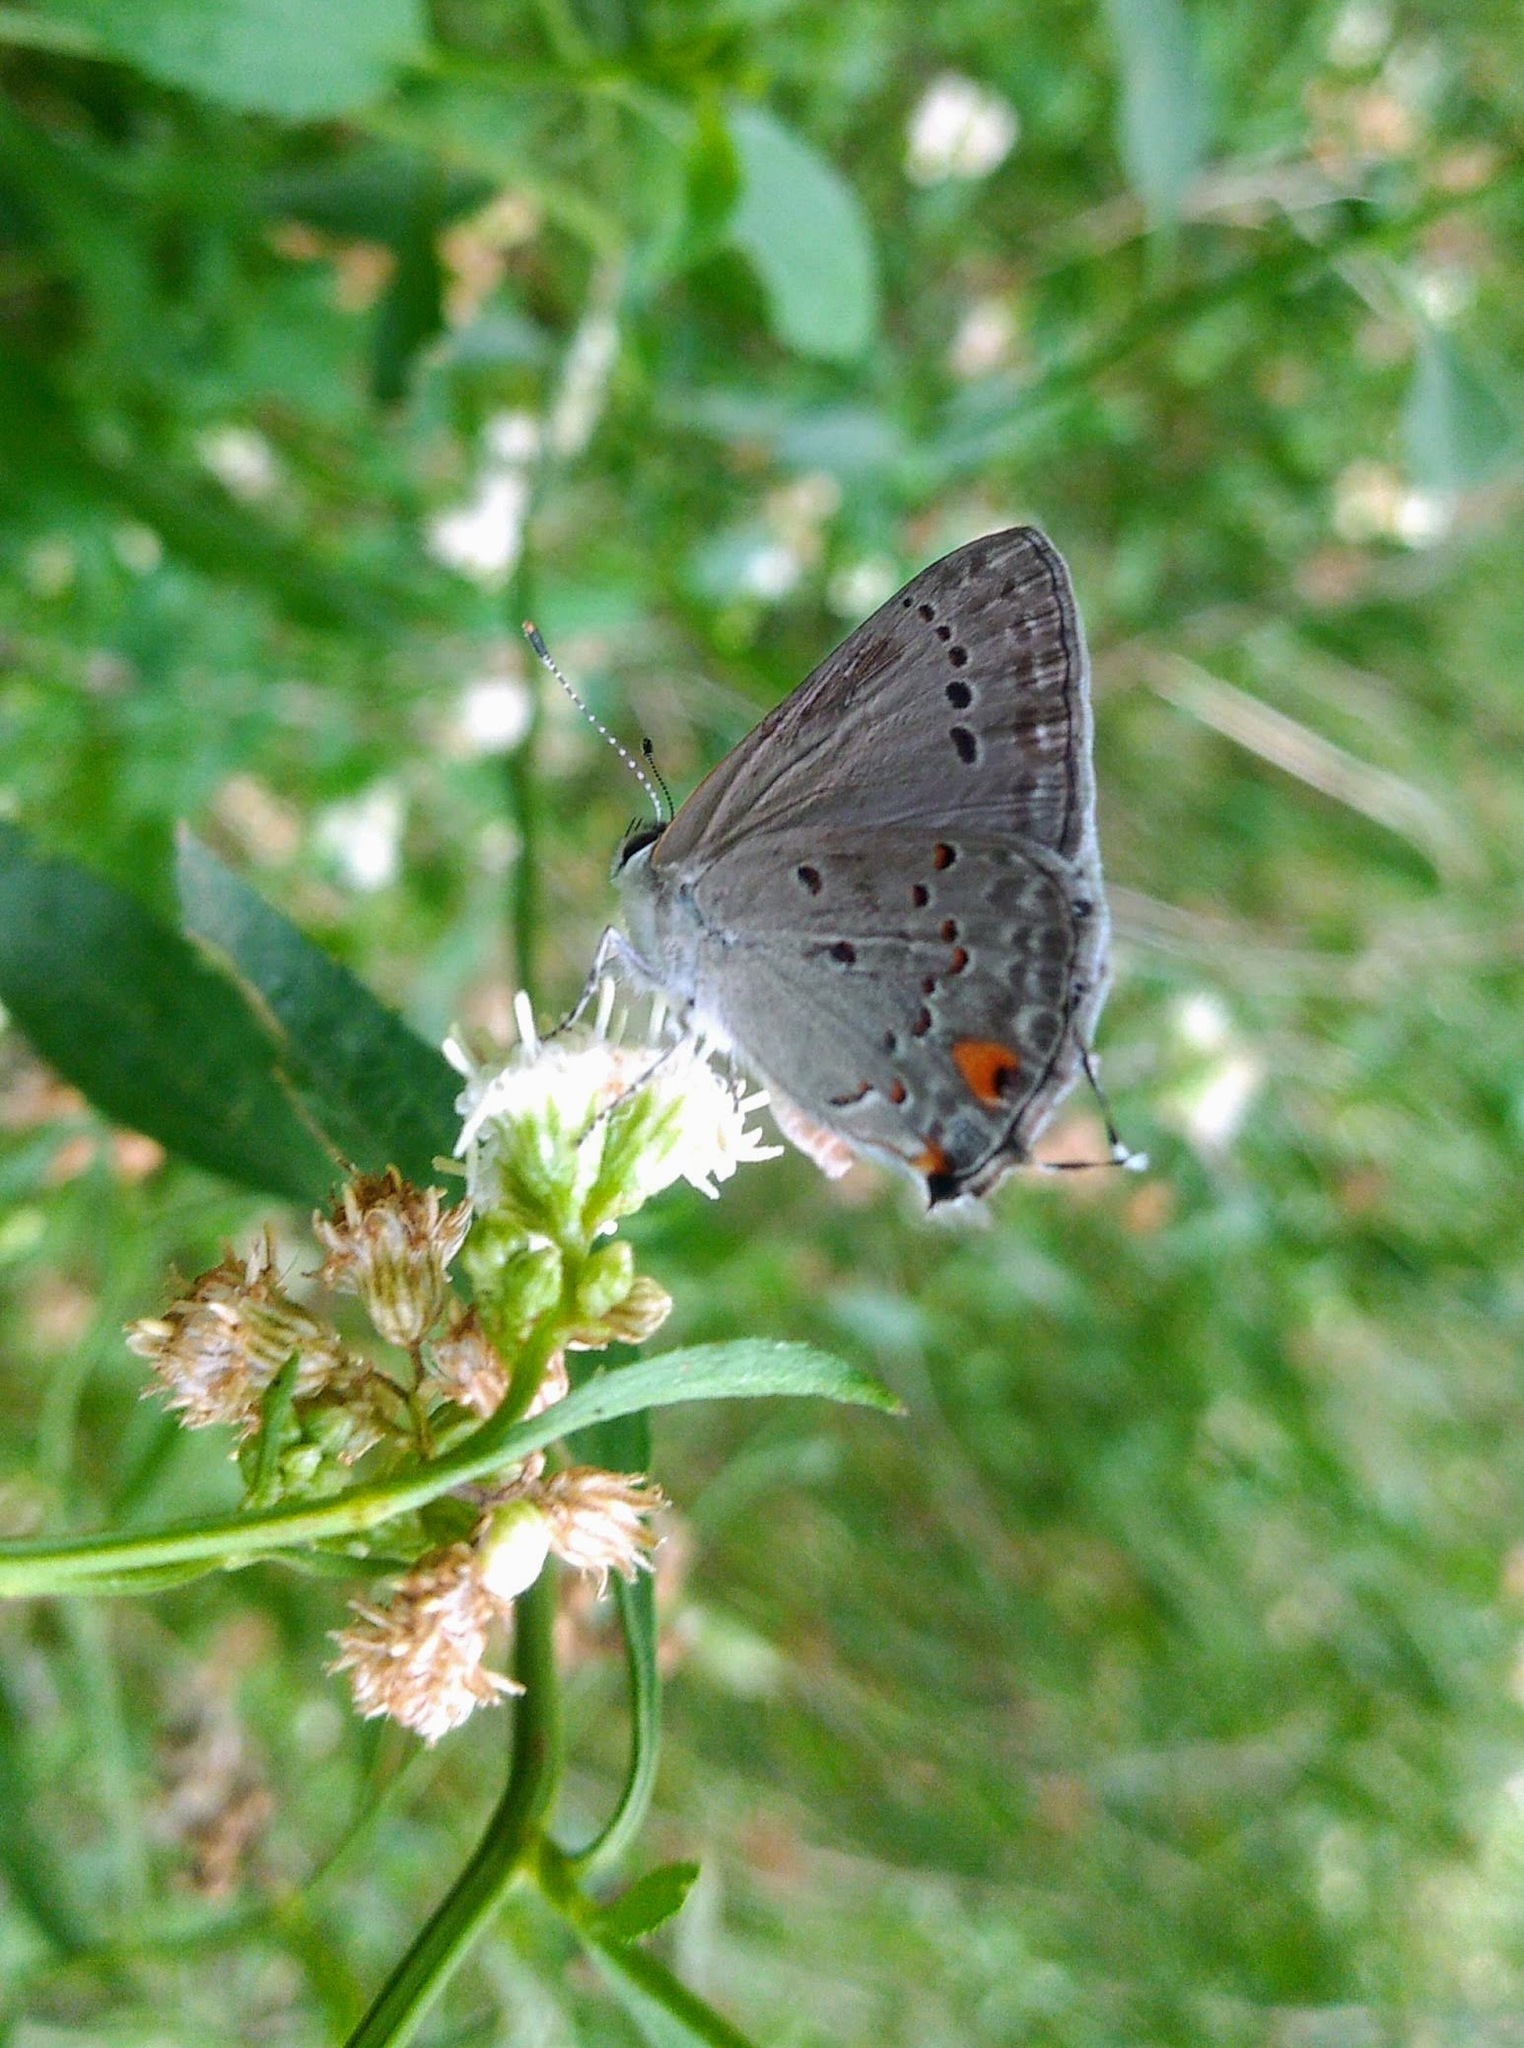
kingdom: Animalia
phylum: Arthropoda
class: Insecta
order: Lepidoptera
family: Lycaenidae
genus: Strymon
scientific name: Strymon eurytulus
